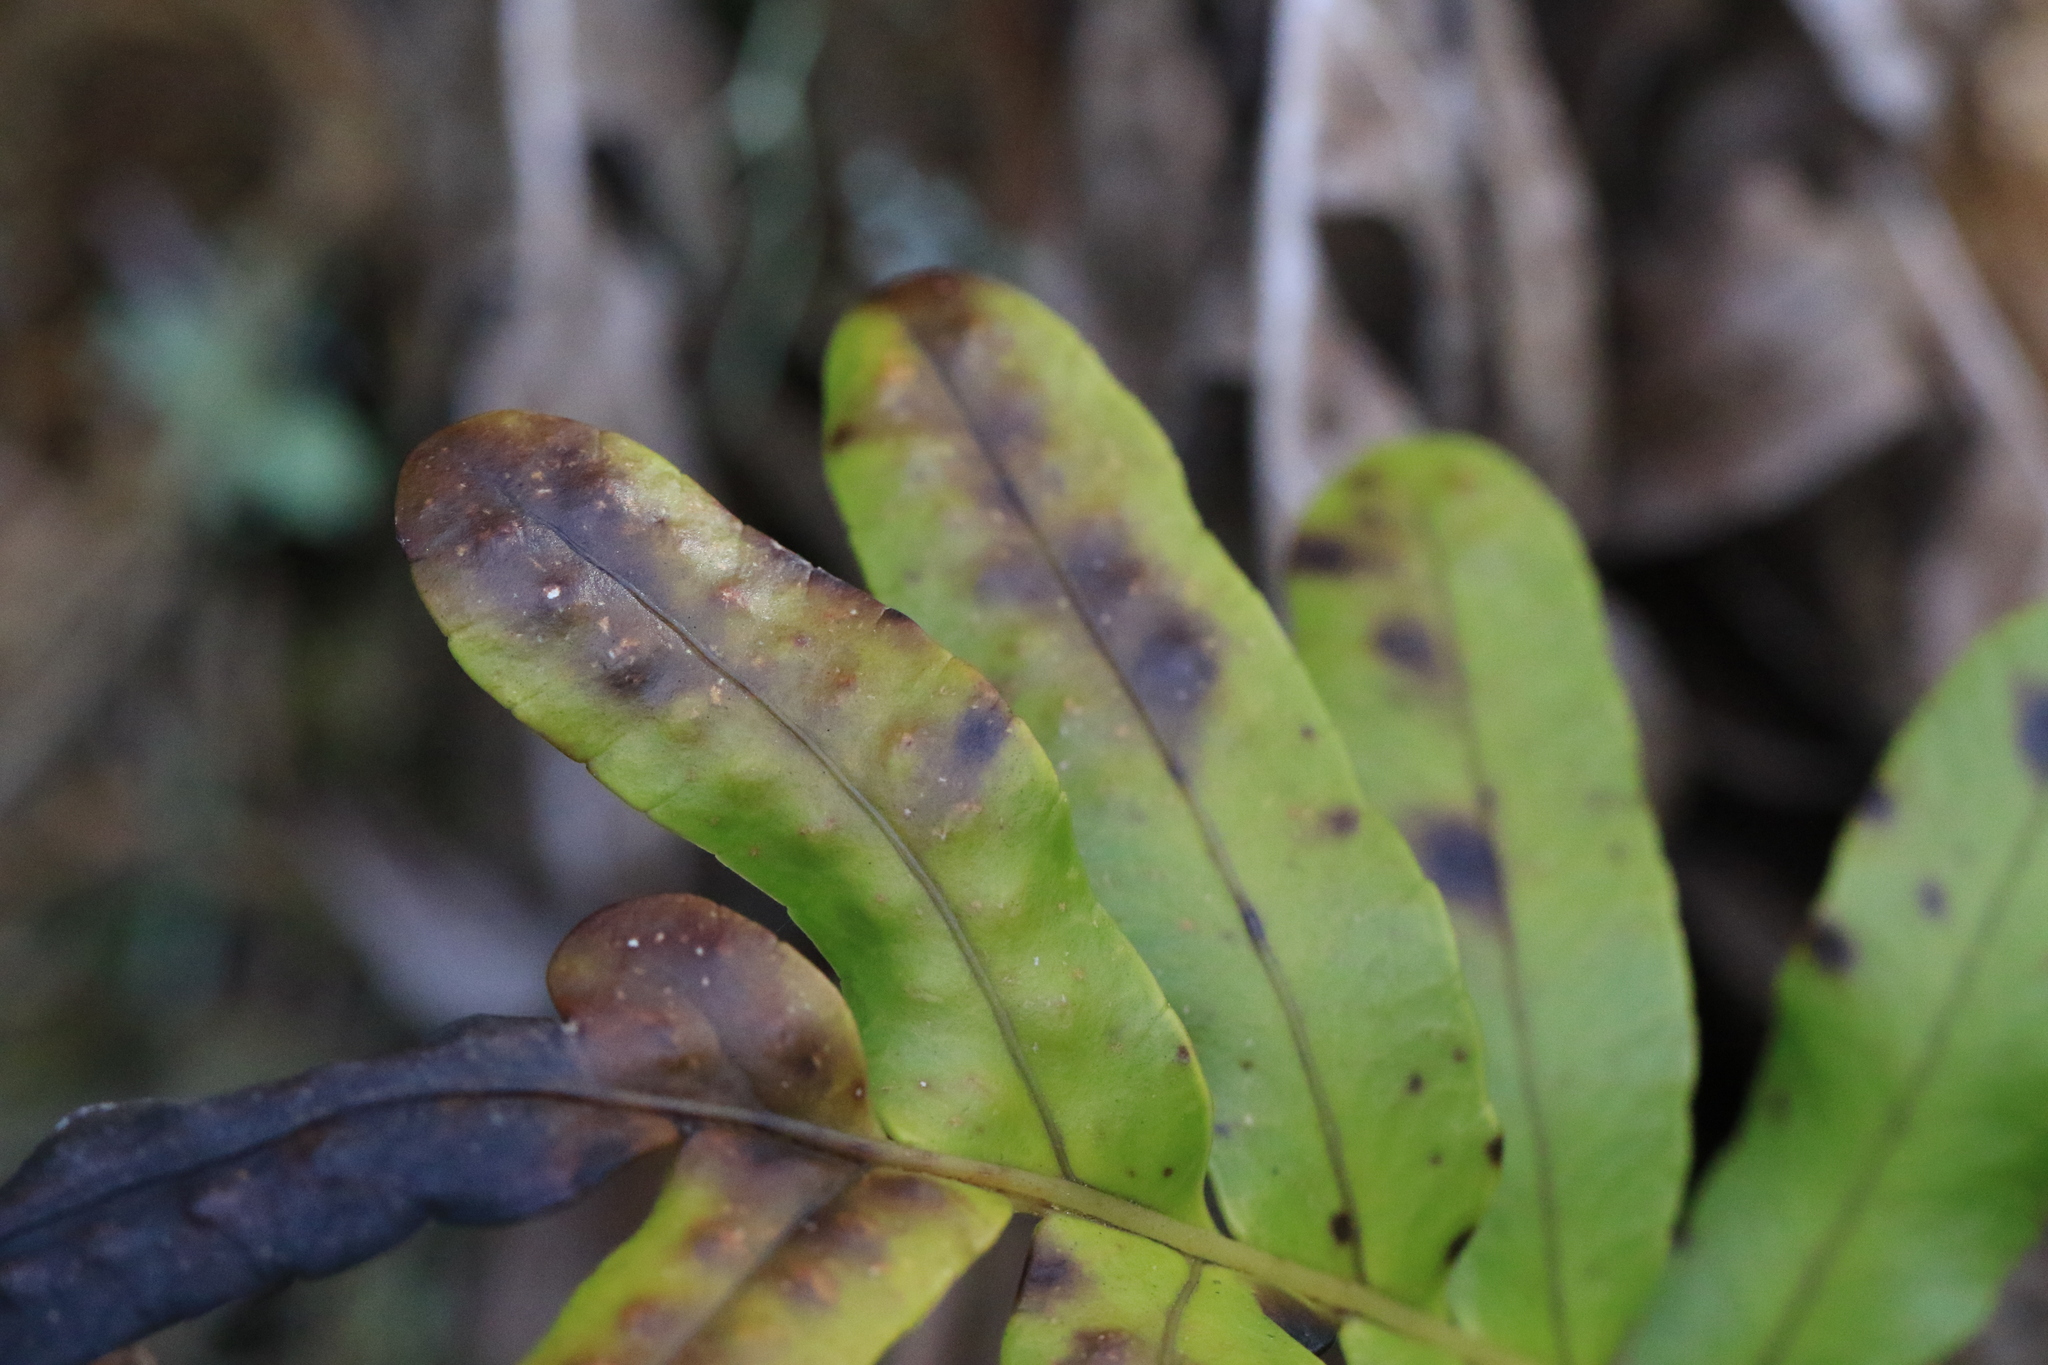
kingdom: Plantae
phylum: Tracheophyta
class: Polypodiopsida
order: Polypodiales
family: Polypodiaceae
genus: Polypodium
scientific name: Polypodium scouleri
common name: Scouler's polypody
